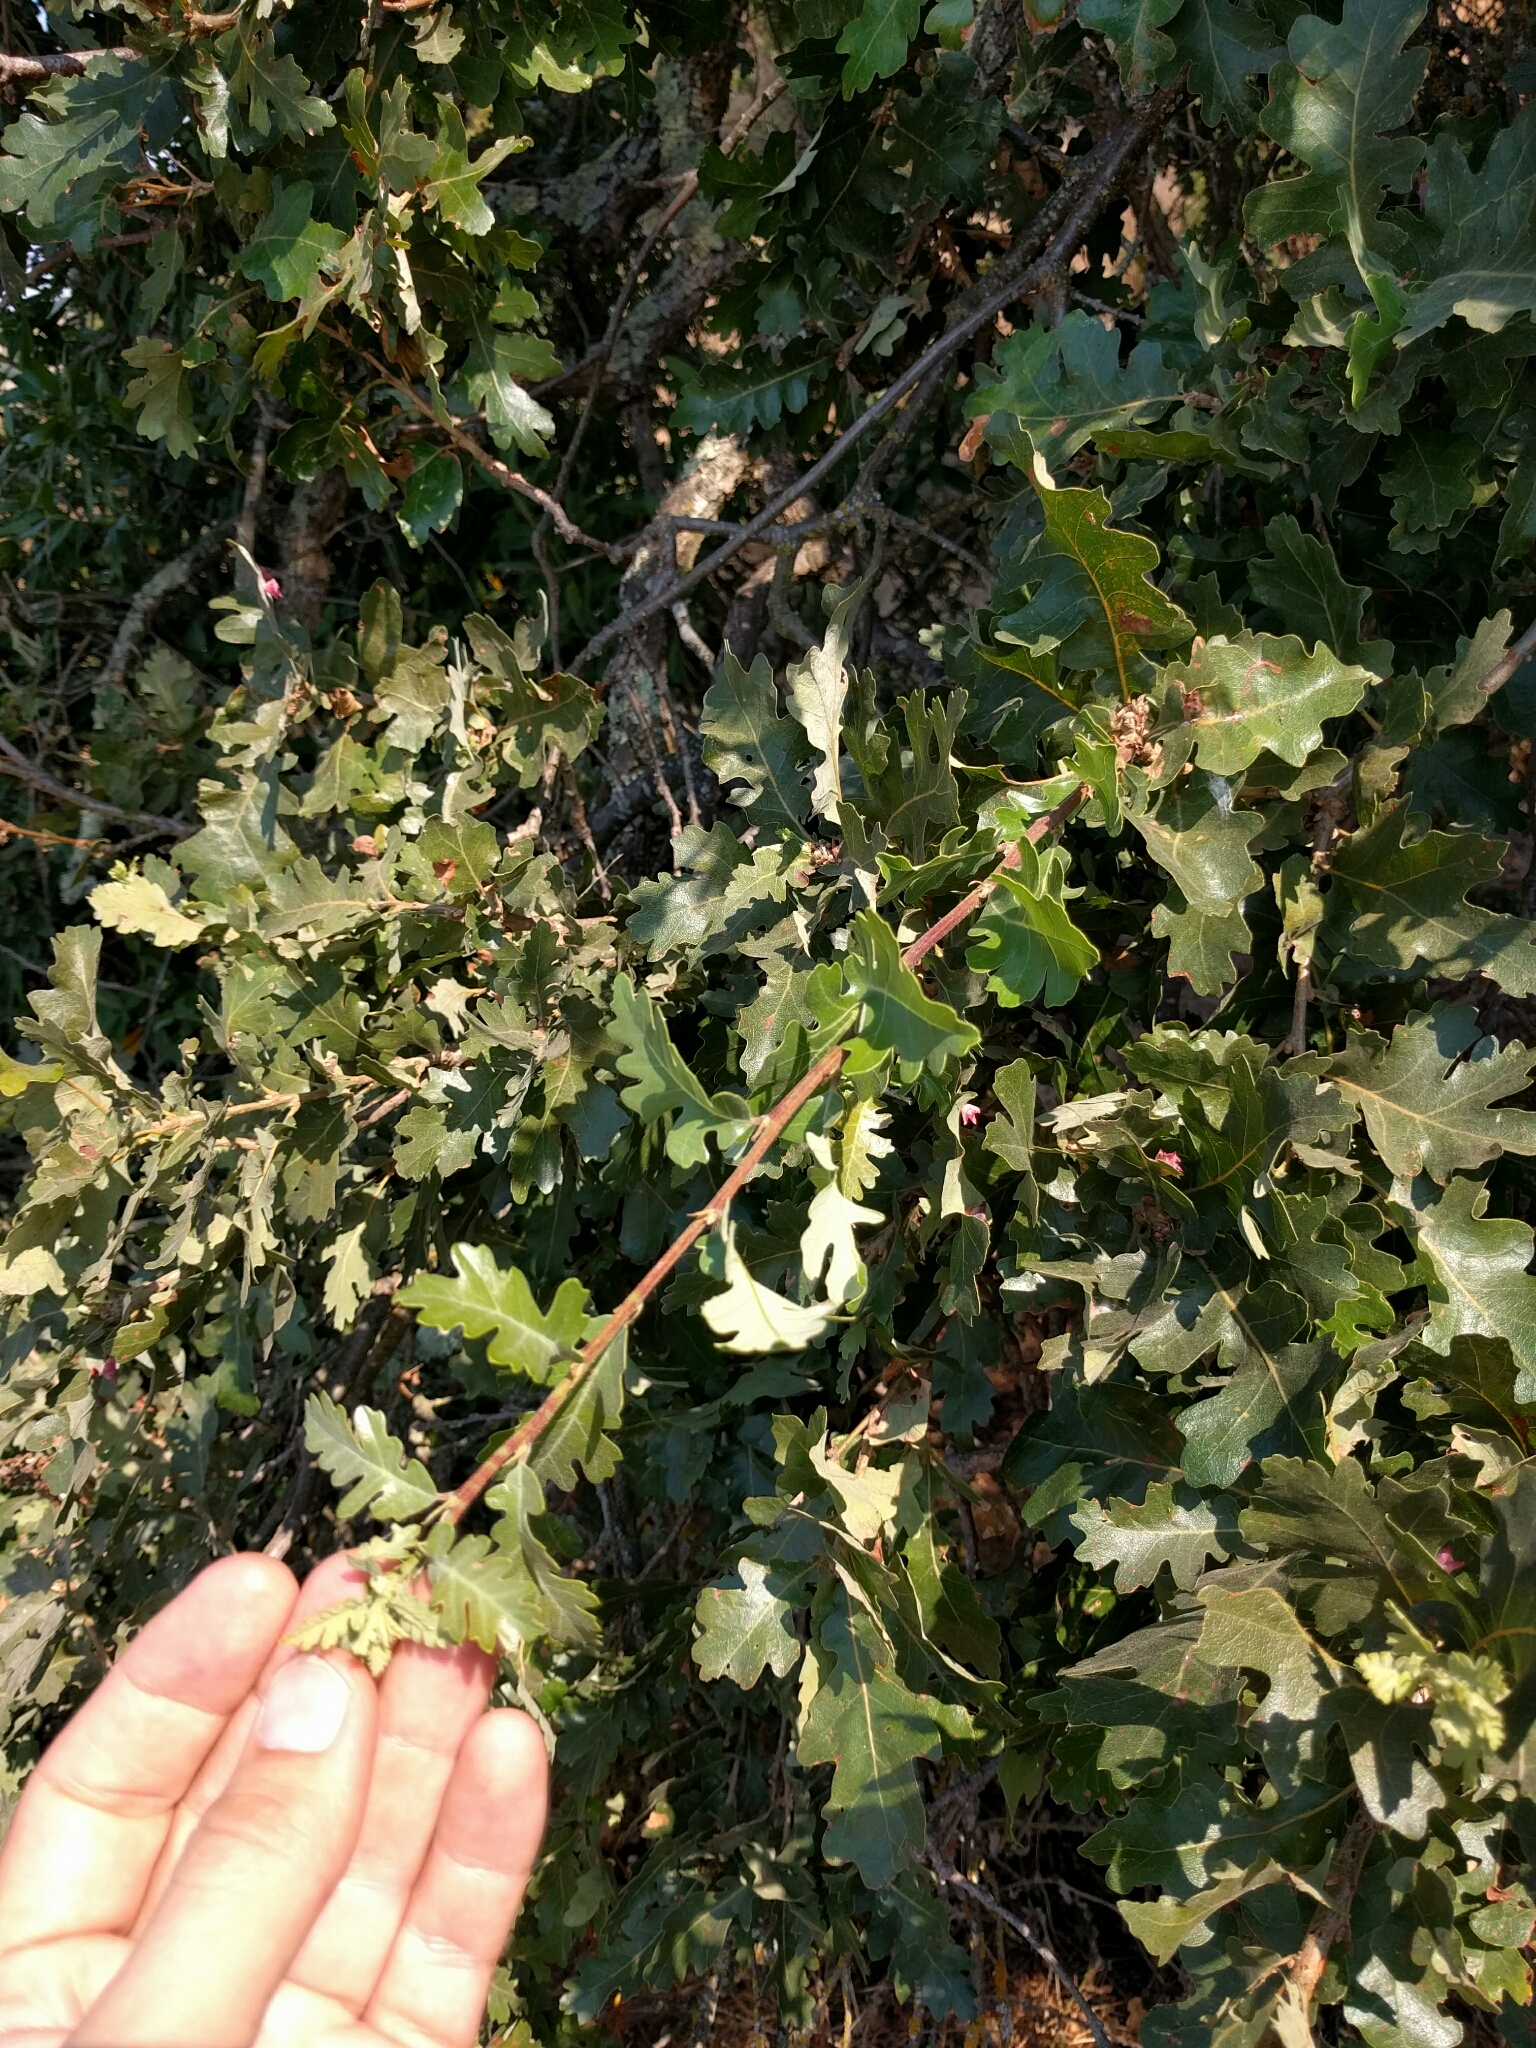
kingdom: Plantae
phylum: Tracheophyta
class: Magnoliopsida
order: Fagales
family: Fagaceae
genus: Quercus
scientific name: Quercus lobata
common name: Valley oak
